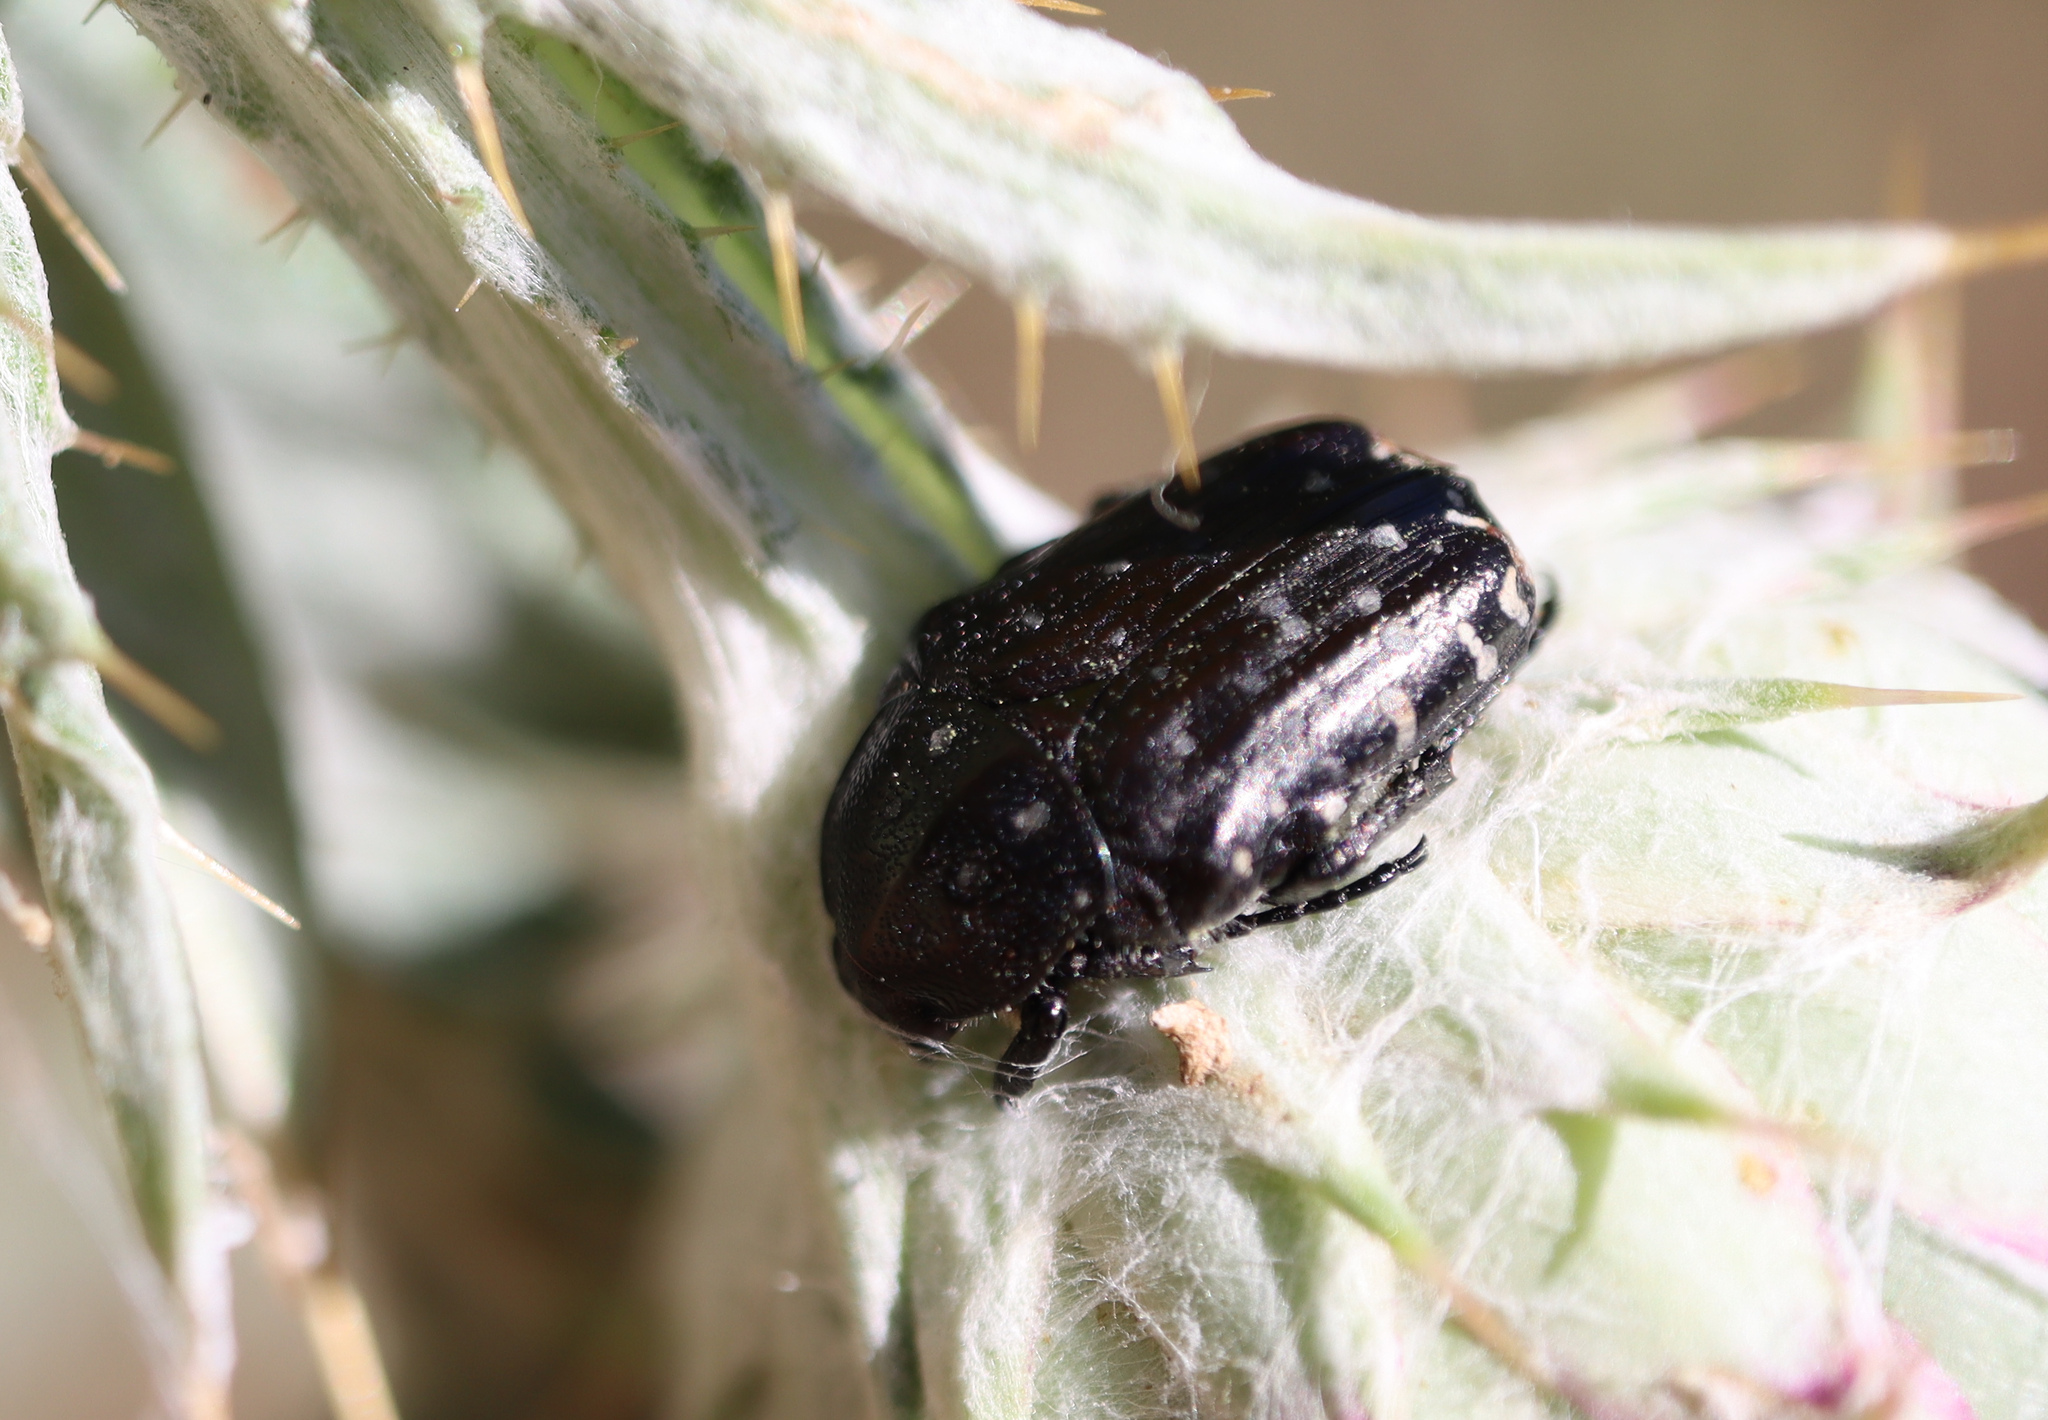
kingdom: Animalia
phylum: Arthropoda
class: Insecta
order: Coleoptera
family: Scarabaeidae
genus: Oxythyrea
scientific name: Oxythyrea funesta
